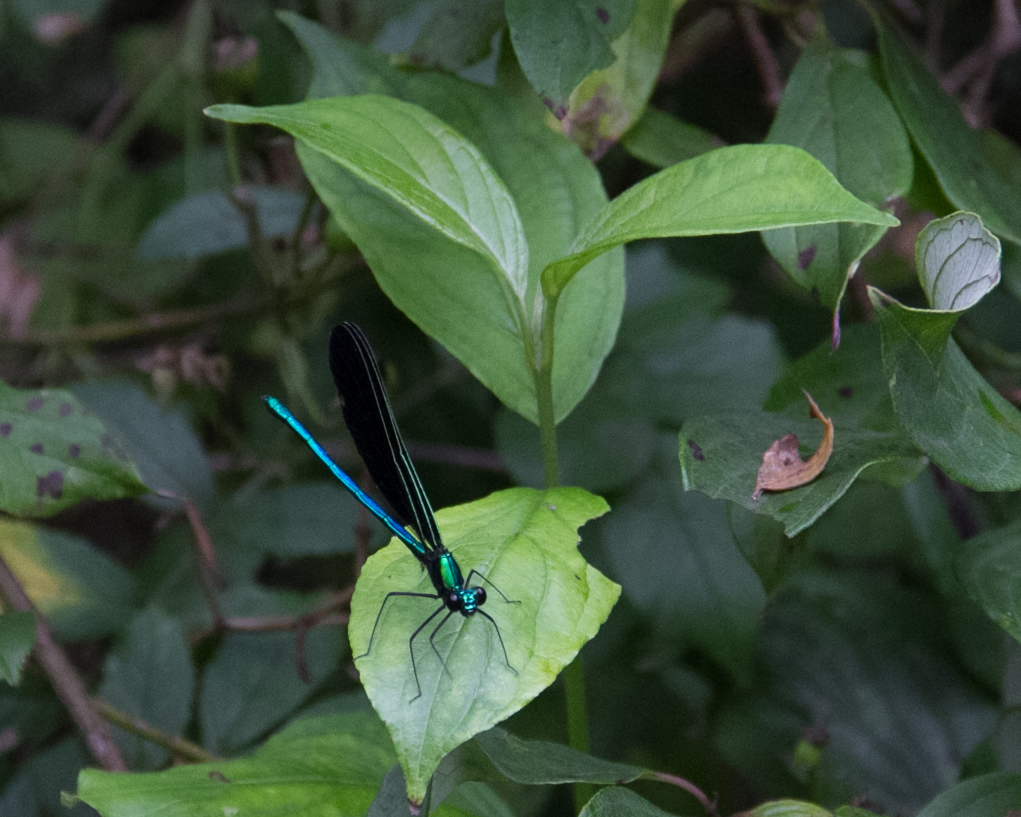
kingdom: Animalia
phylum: Arthropoda
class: Insecta
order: Odonata
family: Calopterygidae
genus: Calopteryx
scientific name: Calopteryx maculata
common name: Ebony jewelwing
